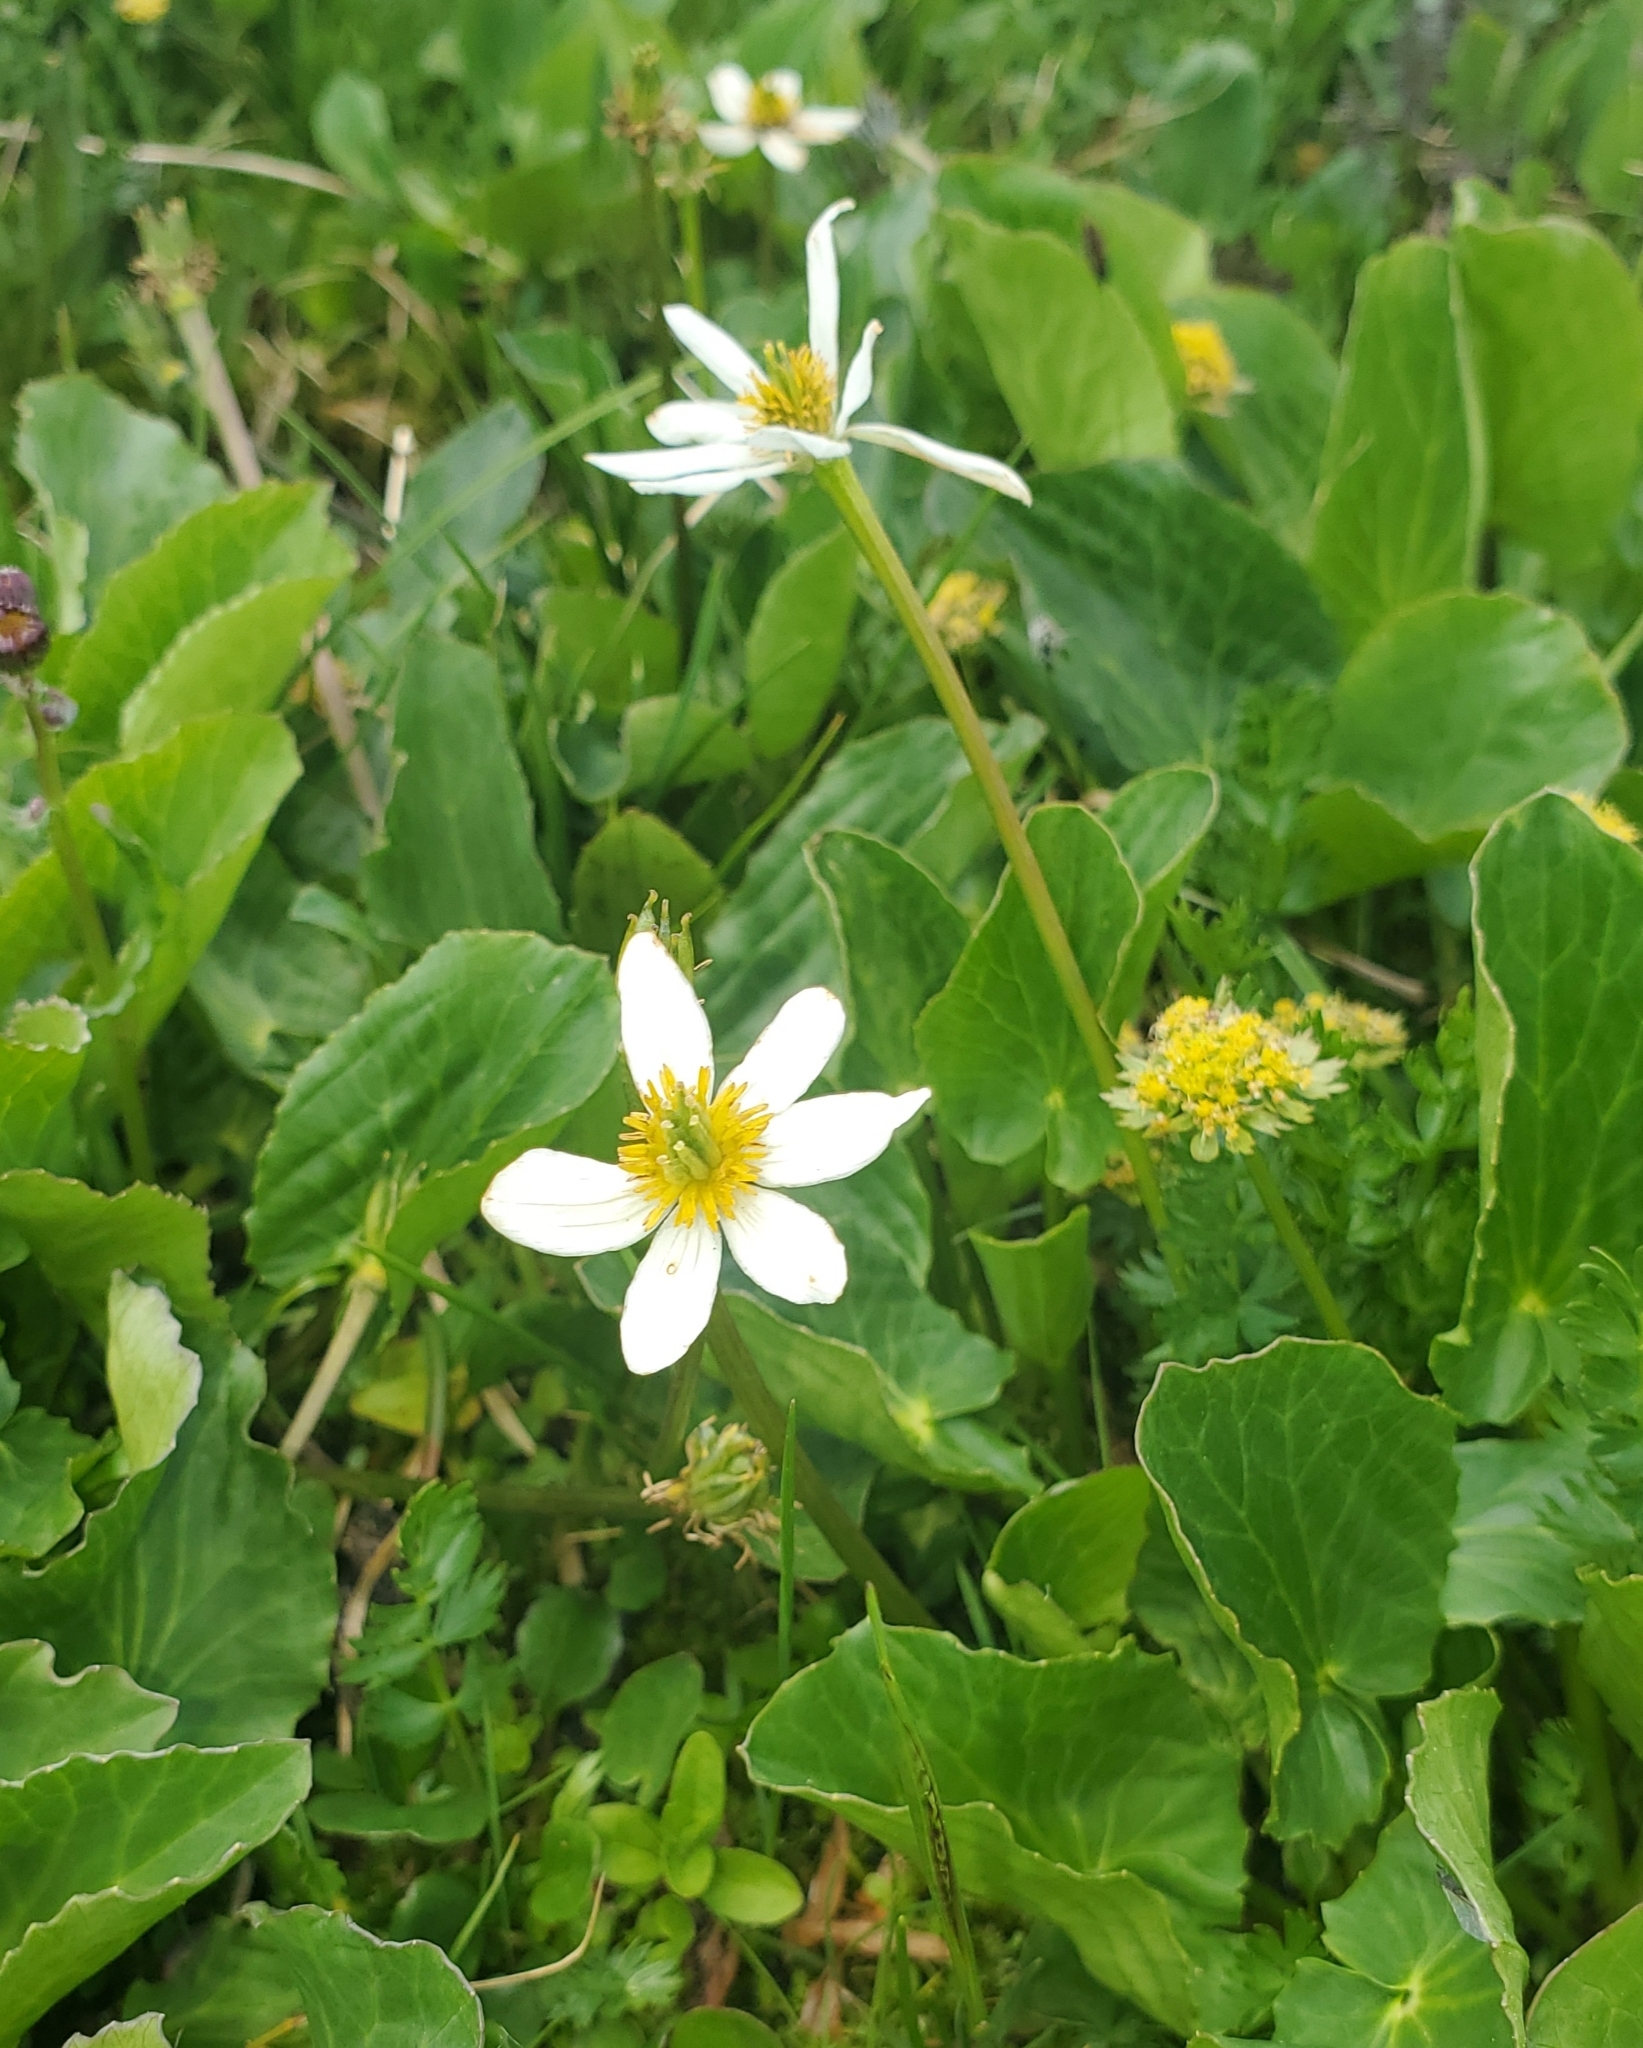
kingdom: Plantae
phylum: Tracheophyta
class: Magnoliopsida
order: Ranunculales
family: Ranunculaceae
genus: Caltha
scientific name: Caltha leptosepala
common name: Elkslip
